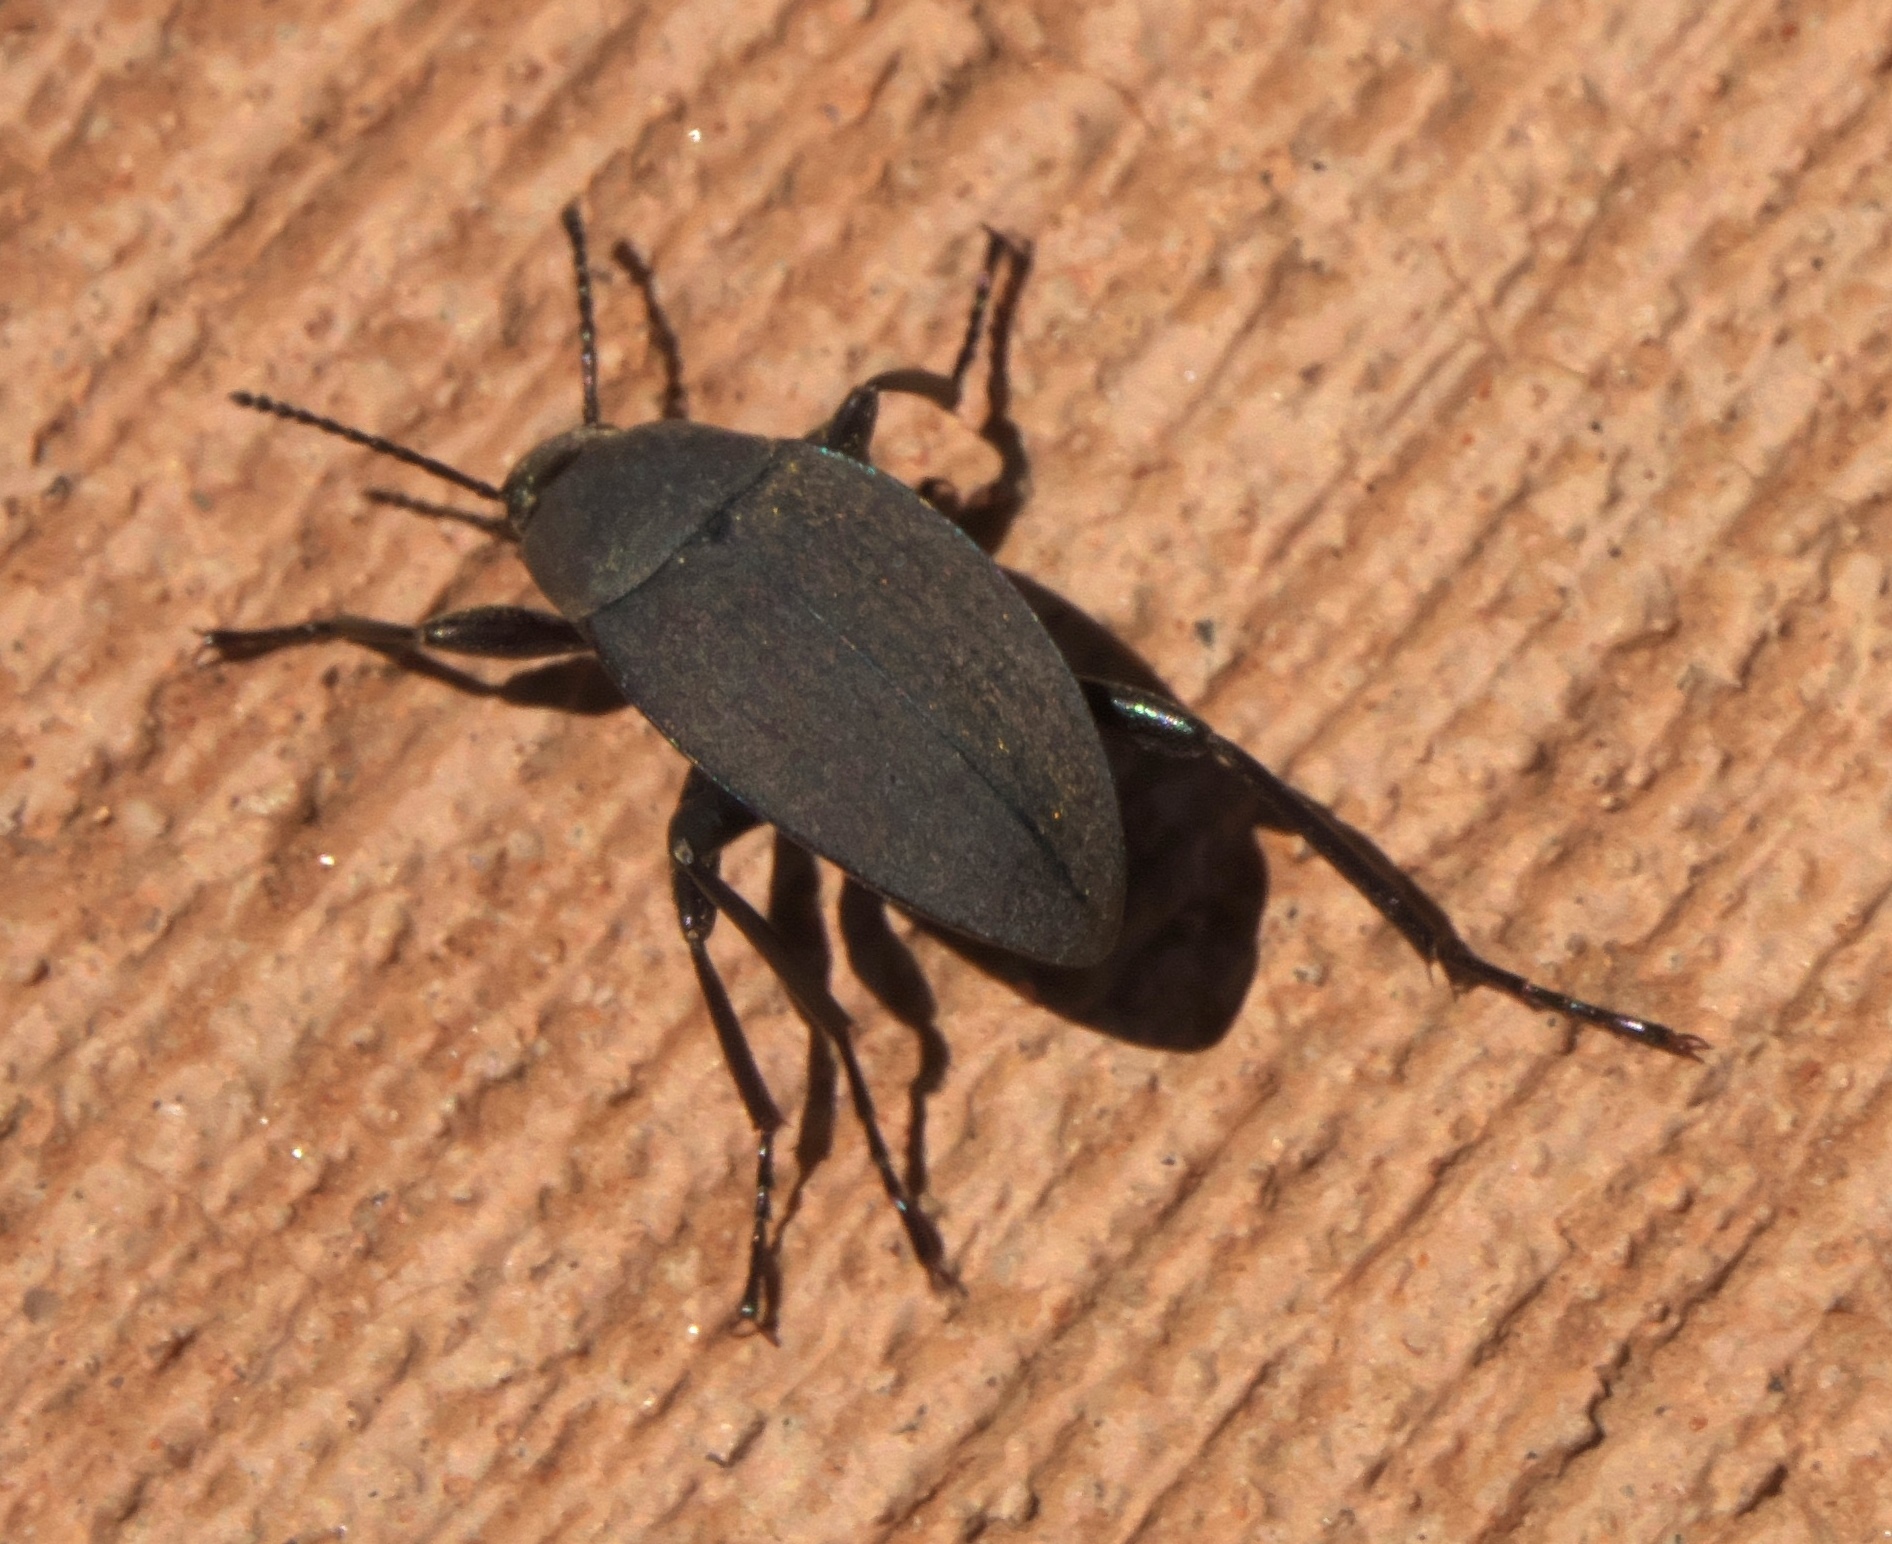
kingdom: Animalia
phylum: Arthropoda
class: Insecta
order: Coleoptera
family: Tenebrionidae
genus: Eleodes
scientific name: Eleodes opaca
